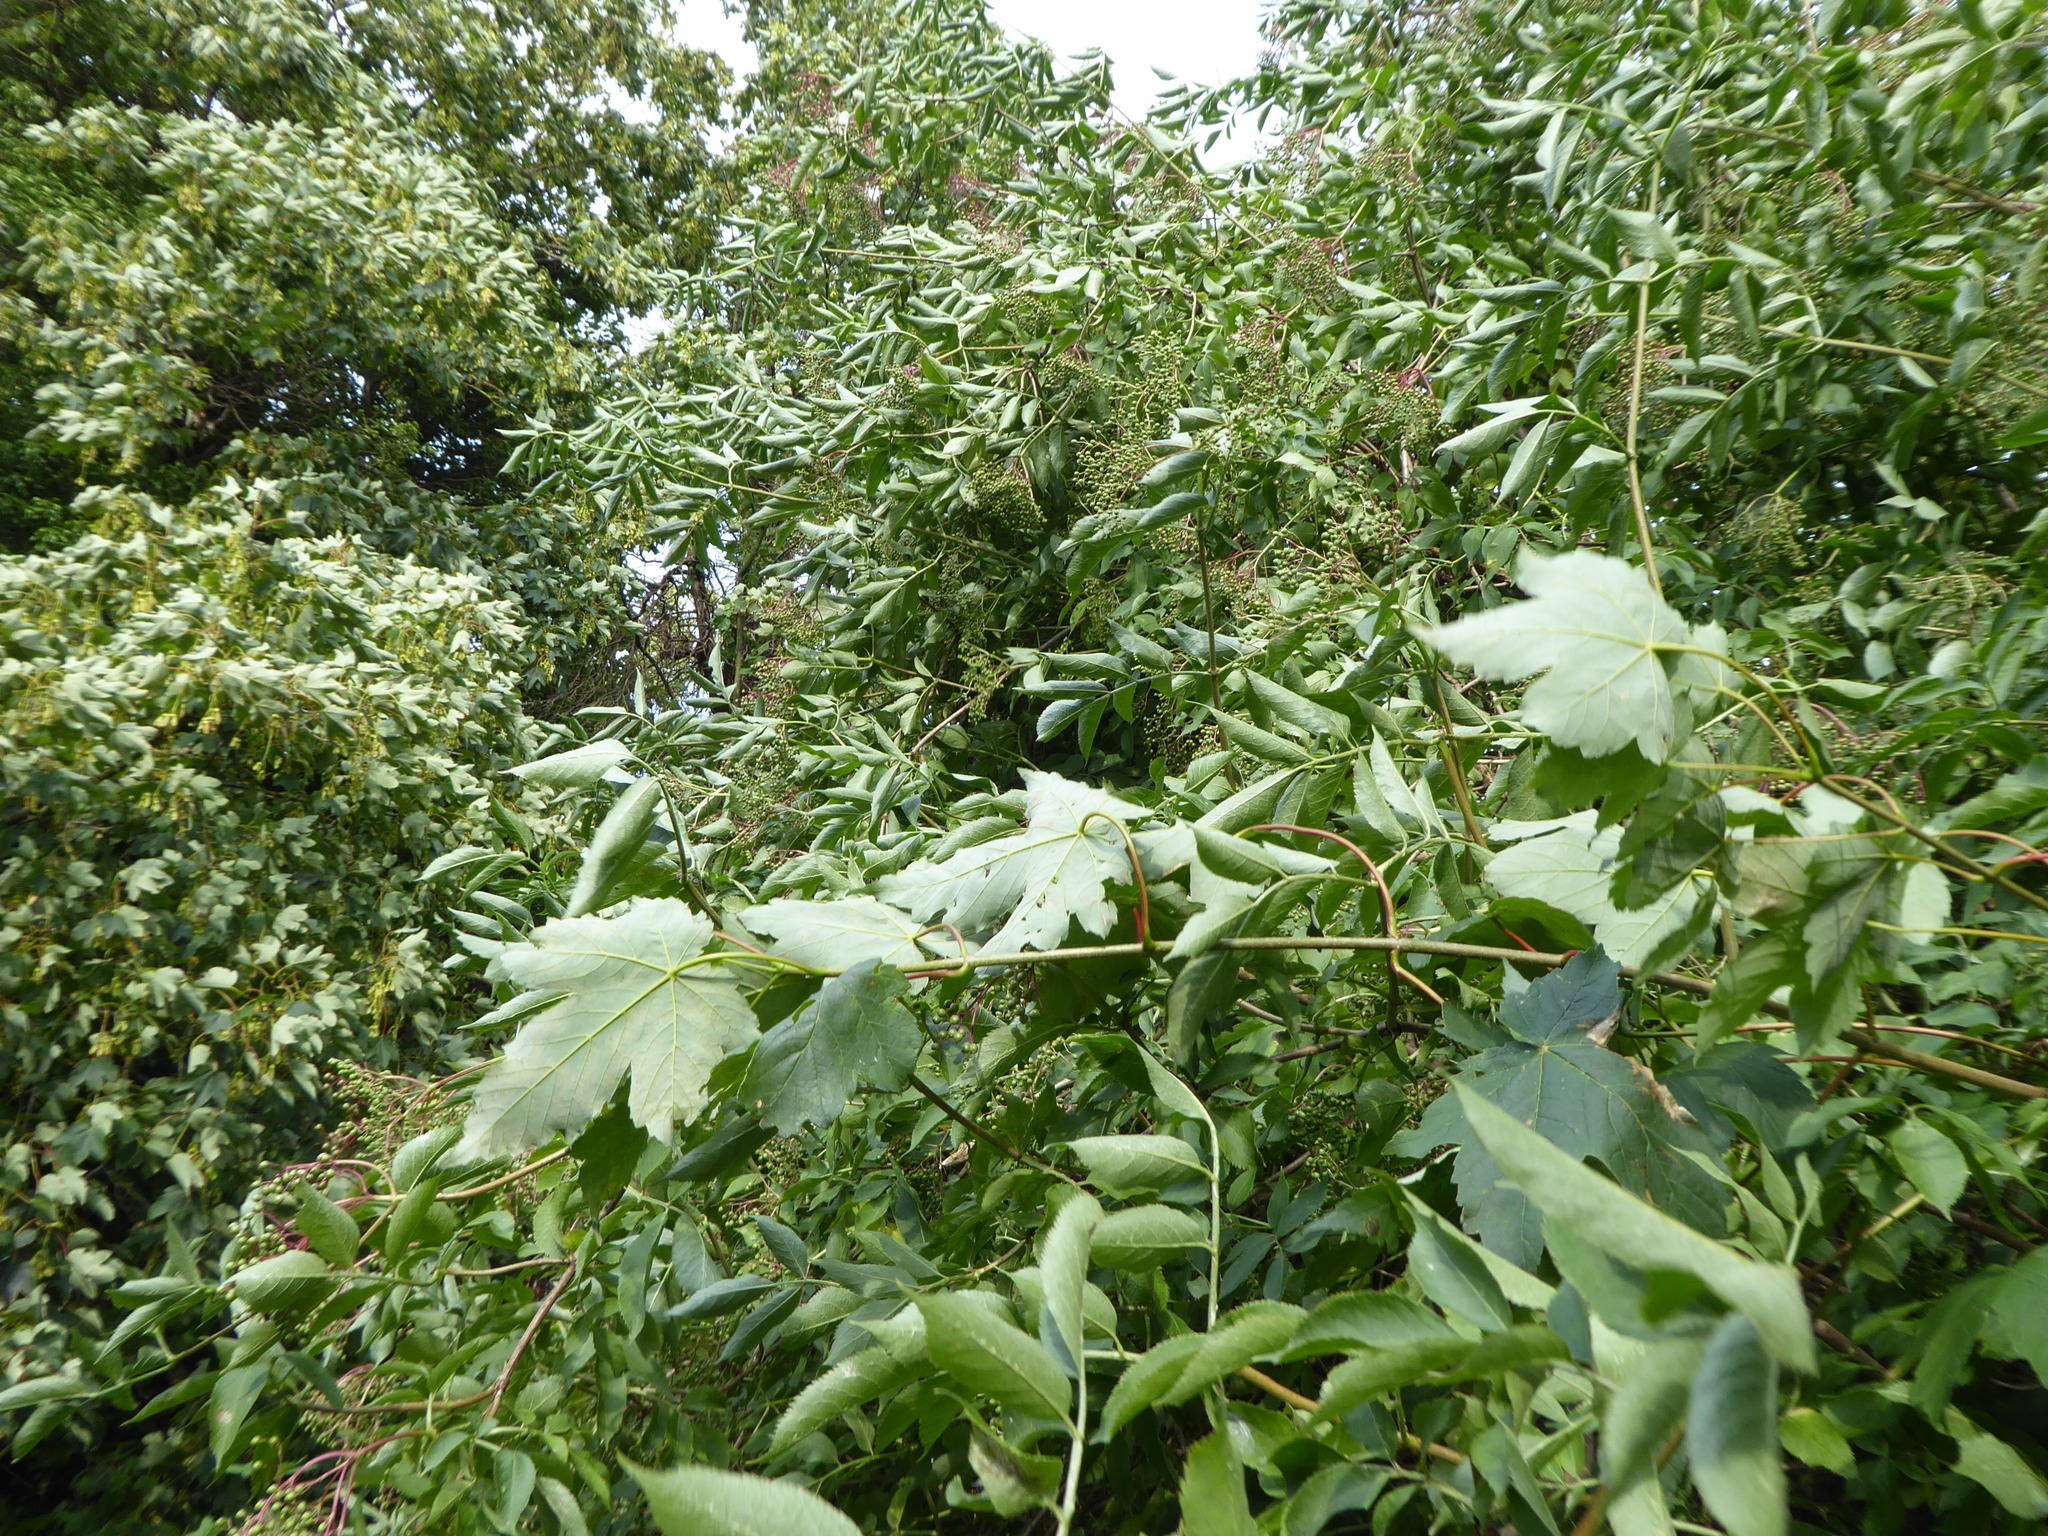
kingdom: Plantae
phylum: Tracheophyta
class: Magnoliopsida
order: Sapindales
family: Sapindaceae
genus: Acer
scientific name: Acer pseudoplatanus
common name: Sycamore
